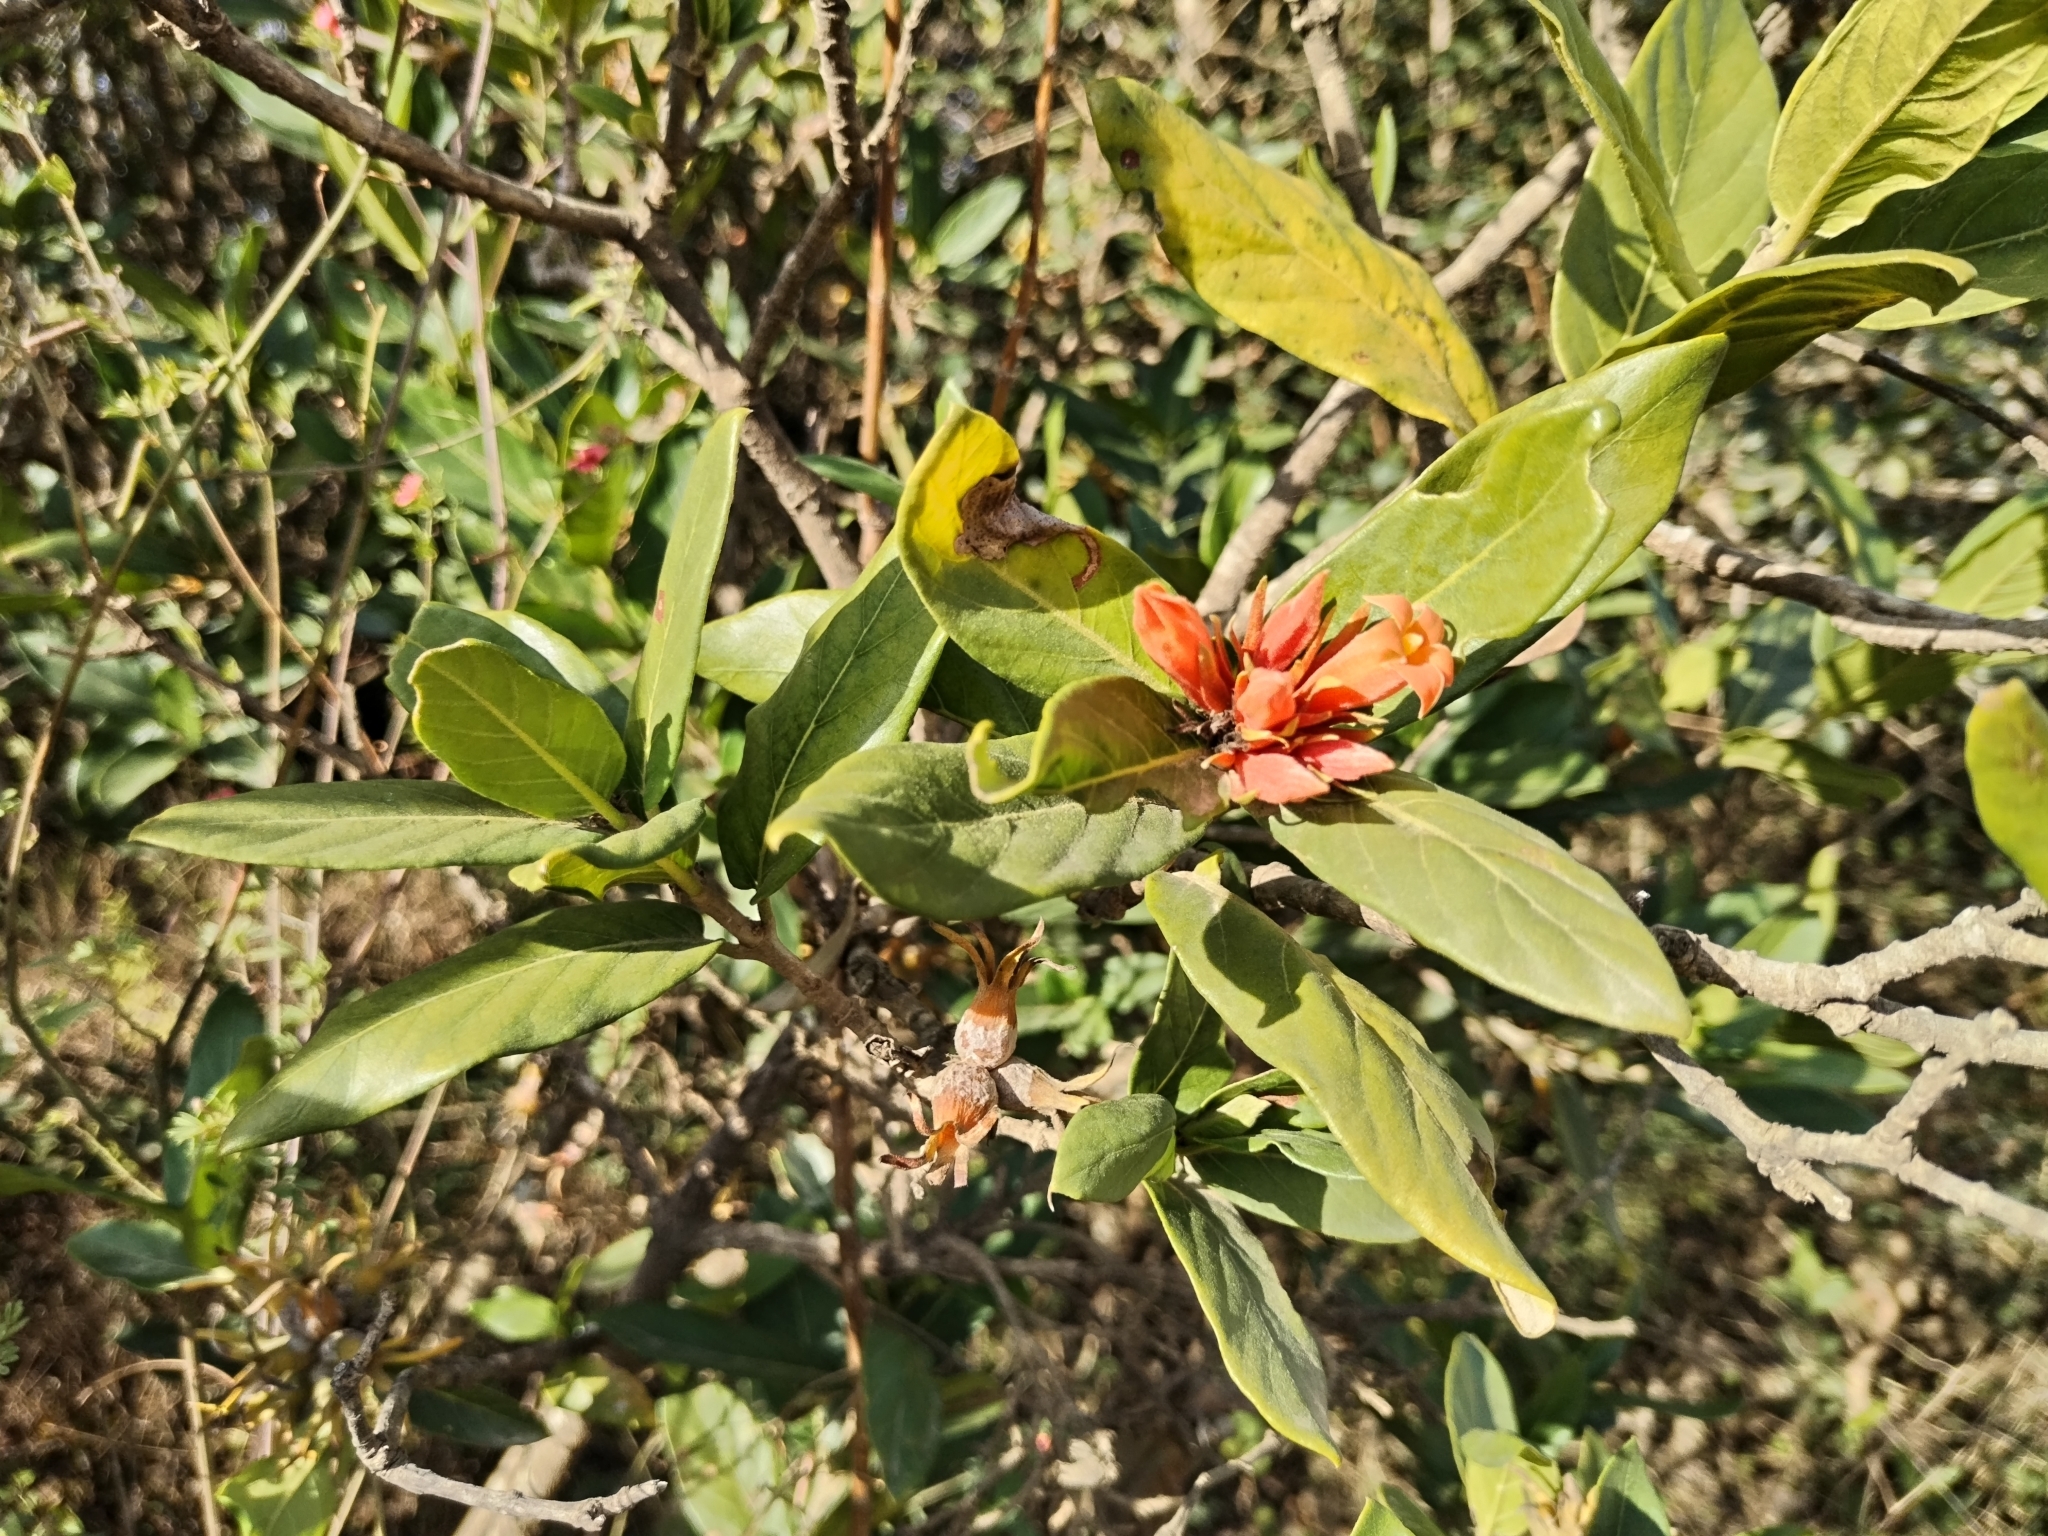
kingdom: Plantae
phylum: Tracheophyta
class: Magnoliopsida
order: Gentianales
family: Rubiaceae
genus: Burchellia
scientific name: Burchellia bubalina
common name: Wild pomegranate
